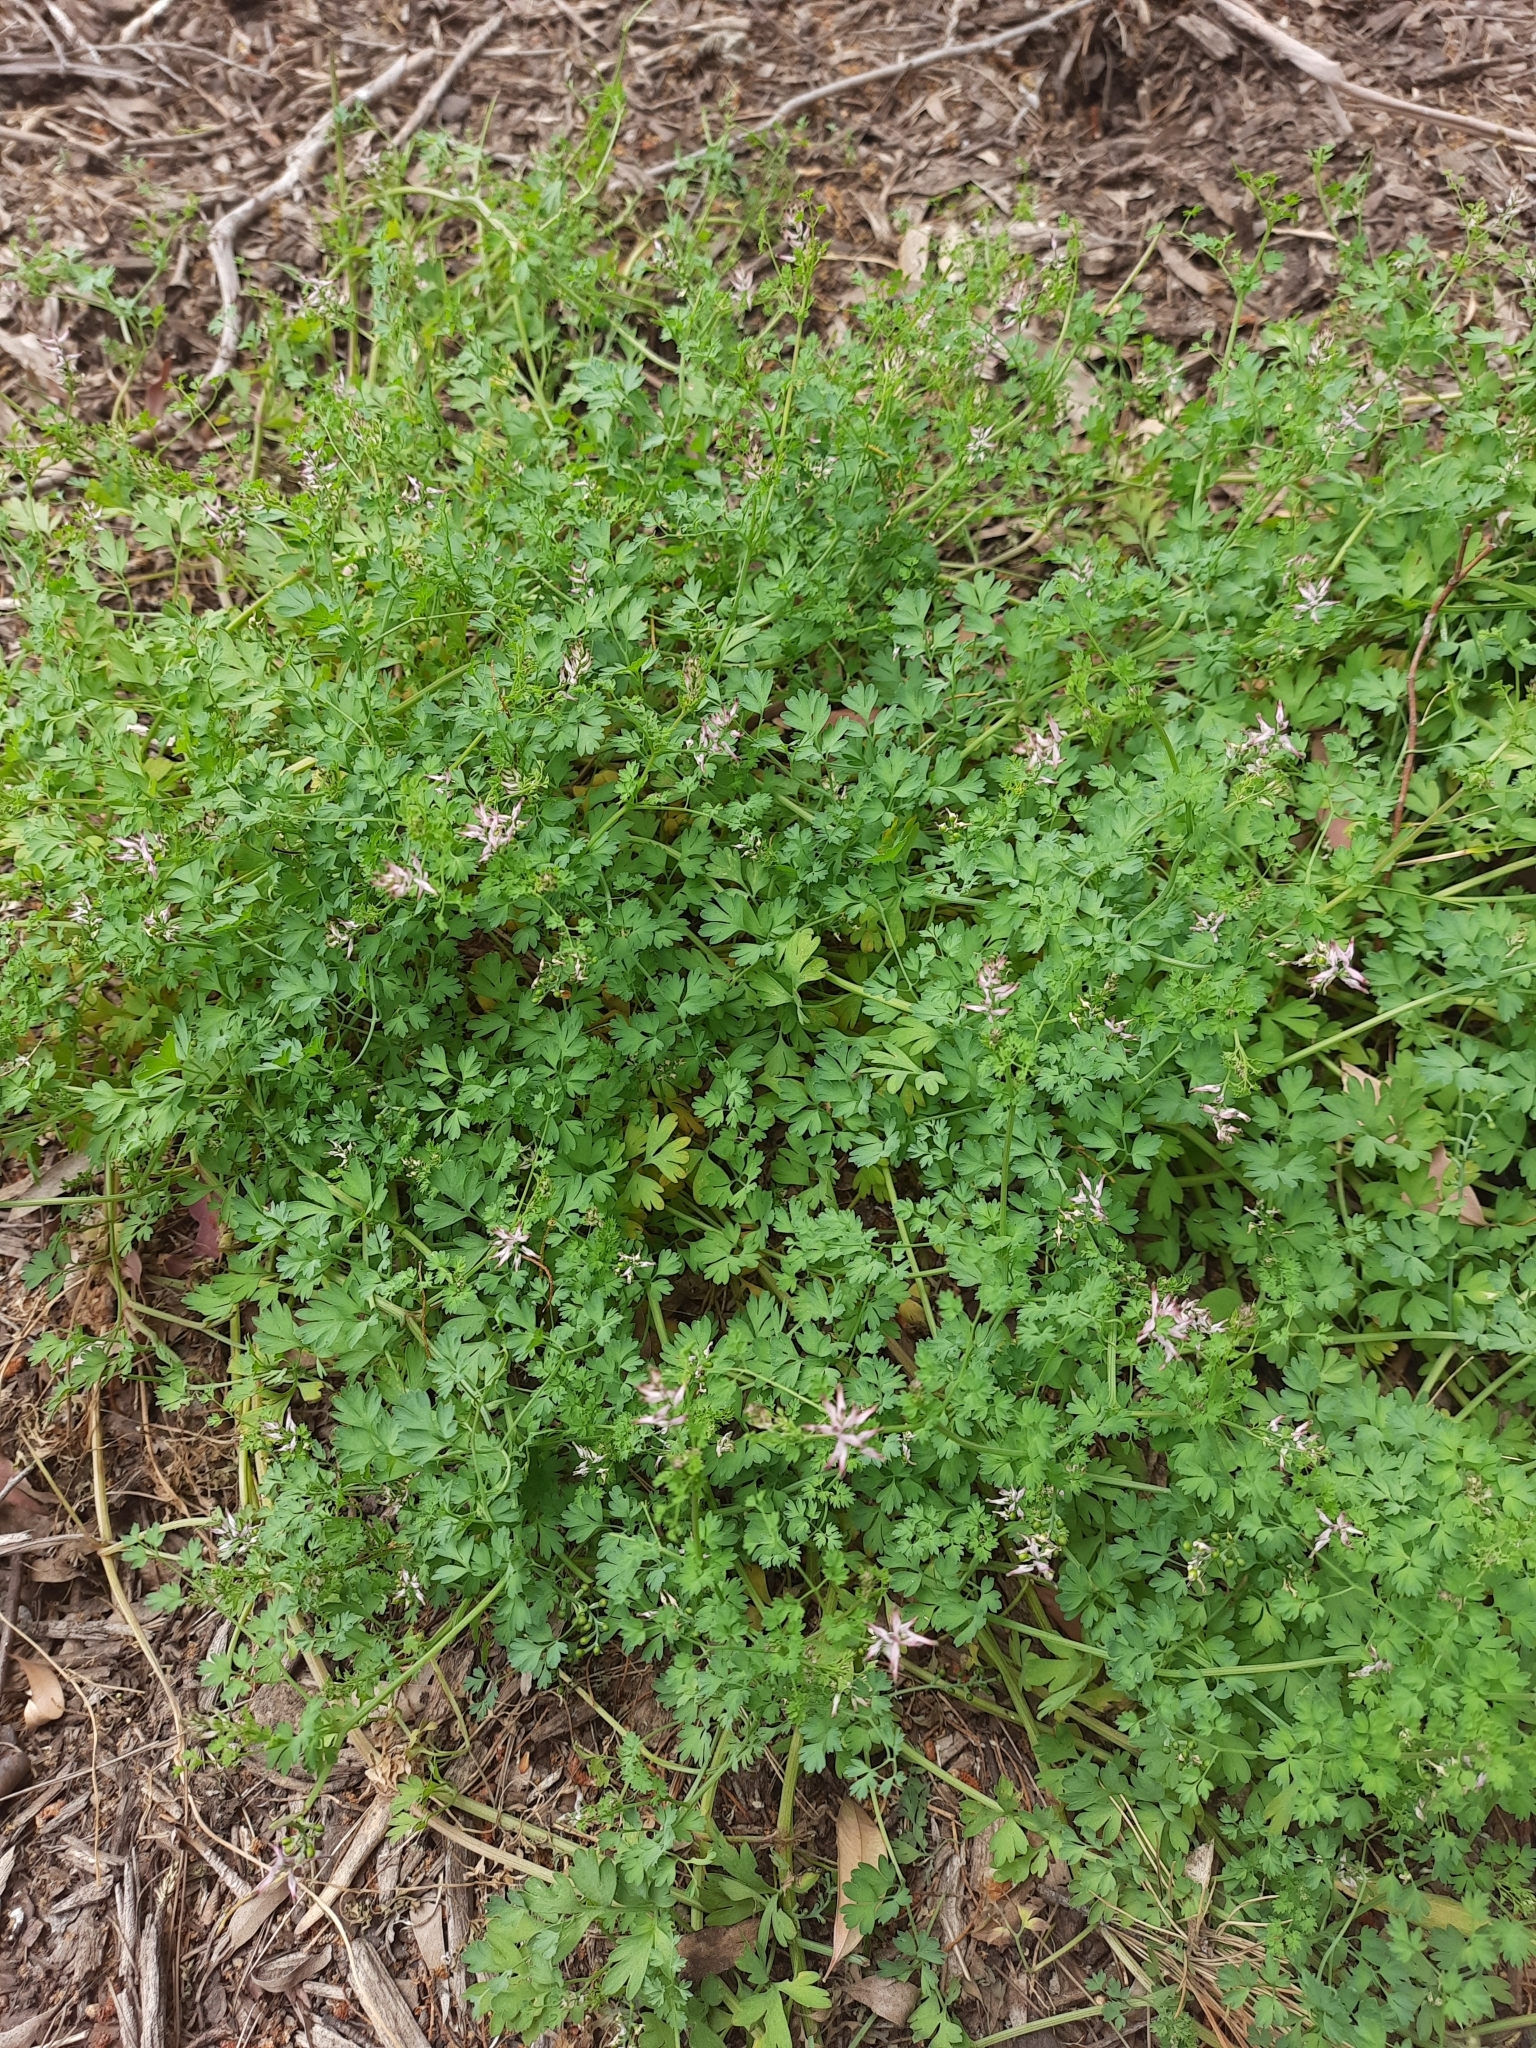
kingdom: Plantae
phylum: Tracheophyta
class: Magnoliopsida
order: Ranunculales
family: Papaveraceae
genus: Fumaria
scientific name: Fumaria bastardii
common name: Tall ramping-fumitory
